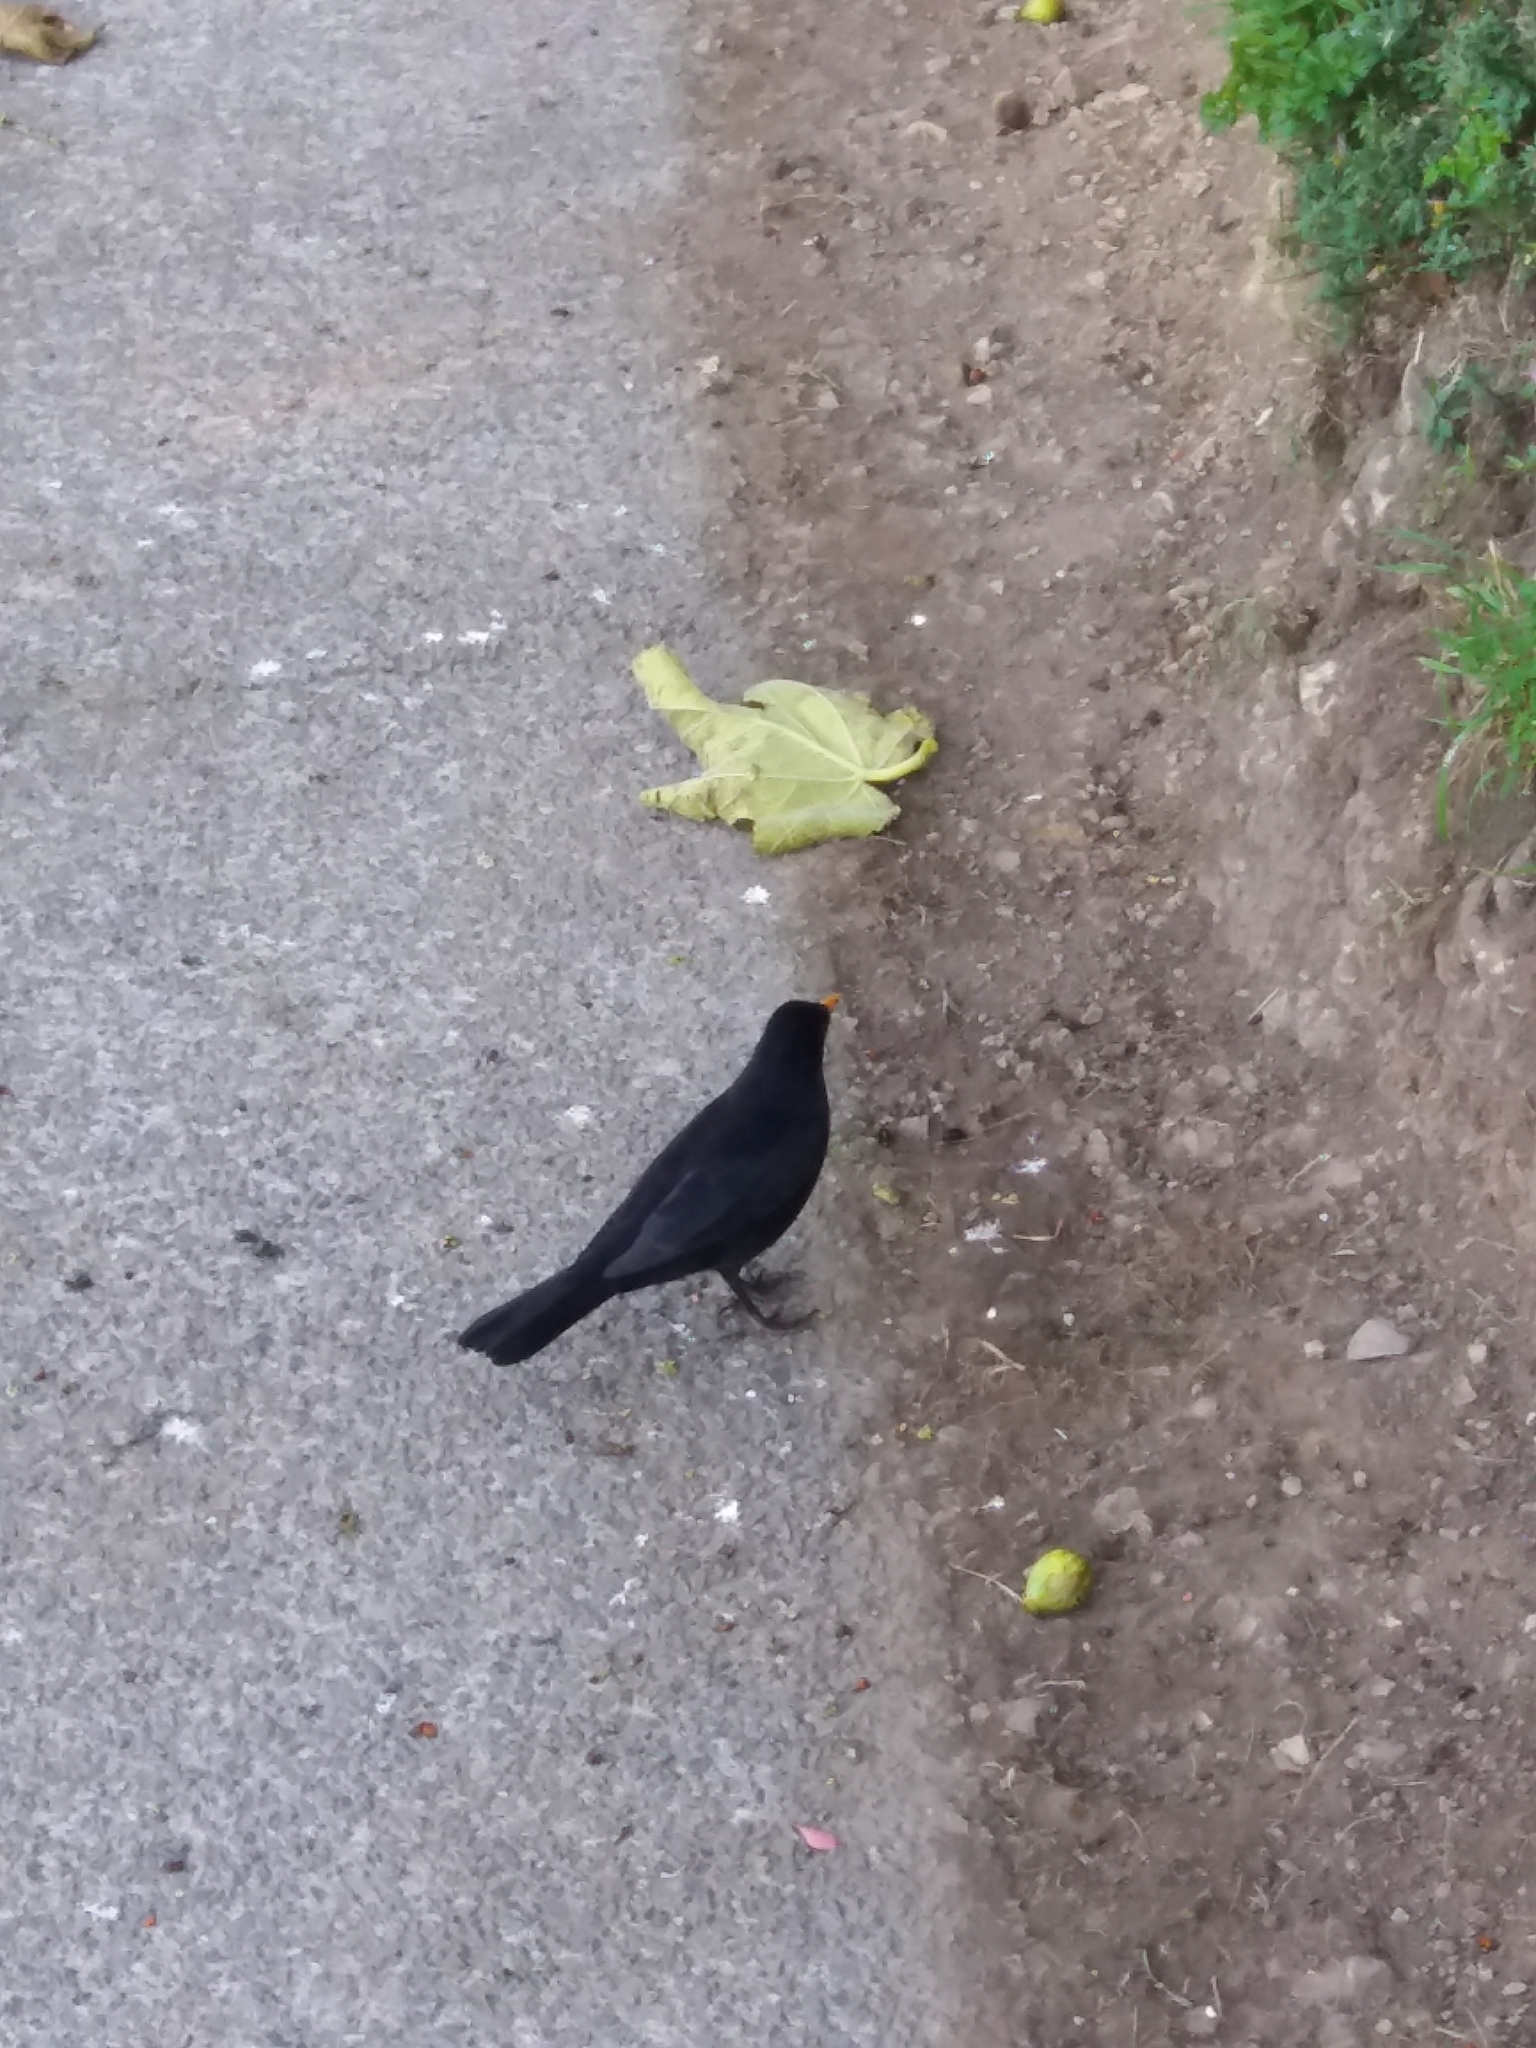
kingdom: Animalia
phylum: Chordata
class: Aves
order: Passeriformes
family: Turdidae
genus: Turdus
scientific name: Turdus merula
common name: Common blackbird
